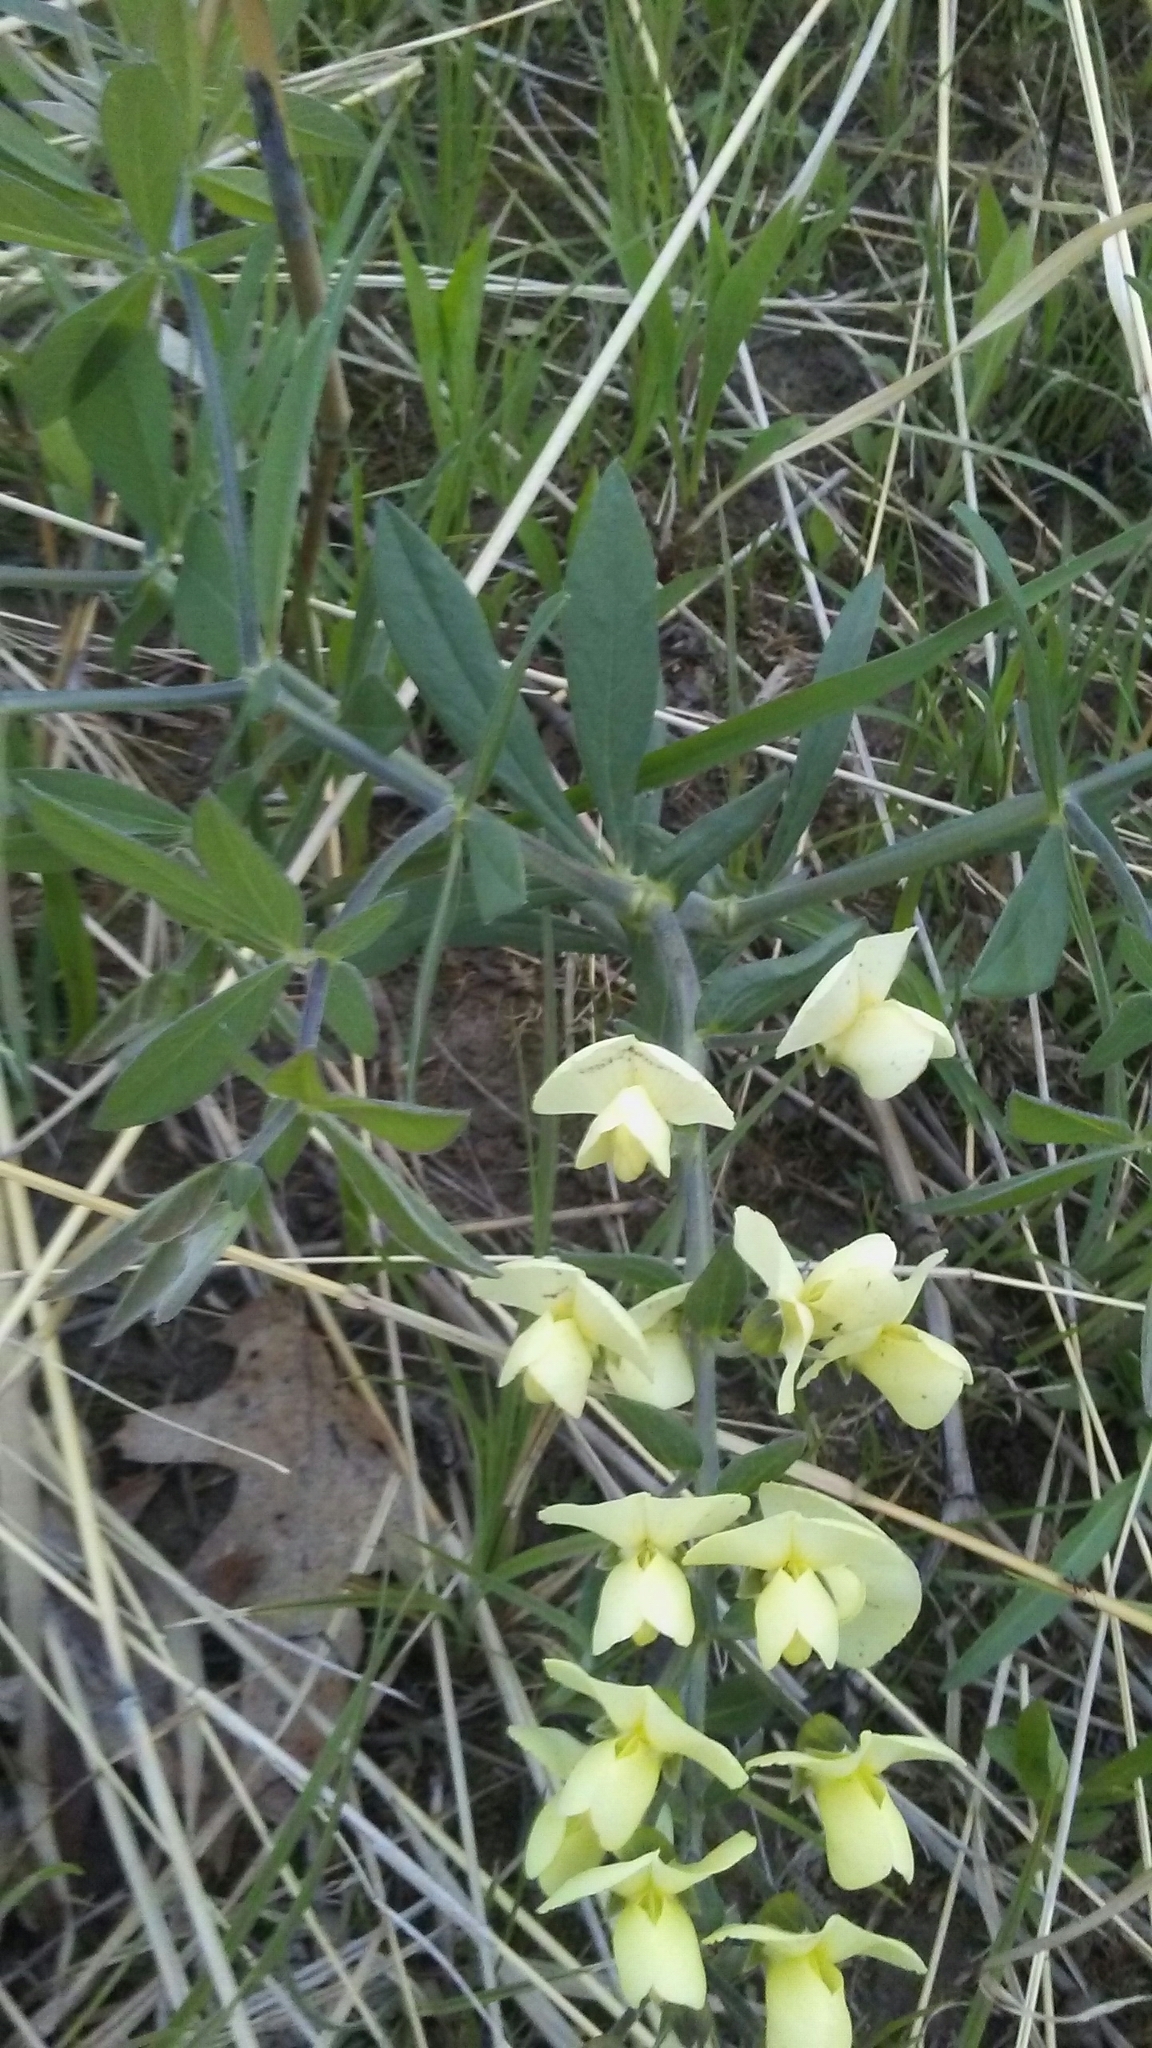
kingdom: Plantae
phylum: Tracheophyta
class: Magnoliopsida
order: Fabales
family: Fabaceae
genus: Baptisia
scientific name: Baptisia bracteata
